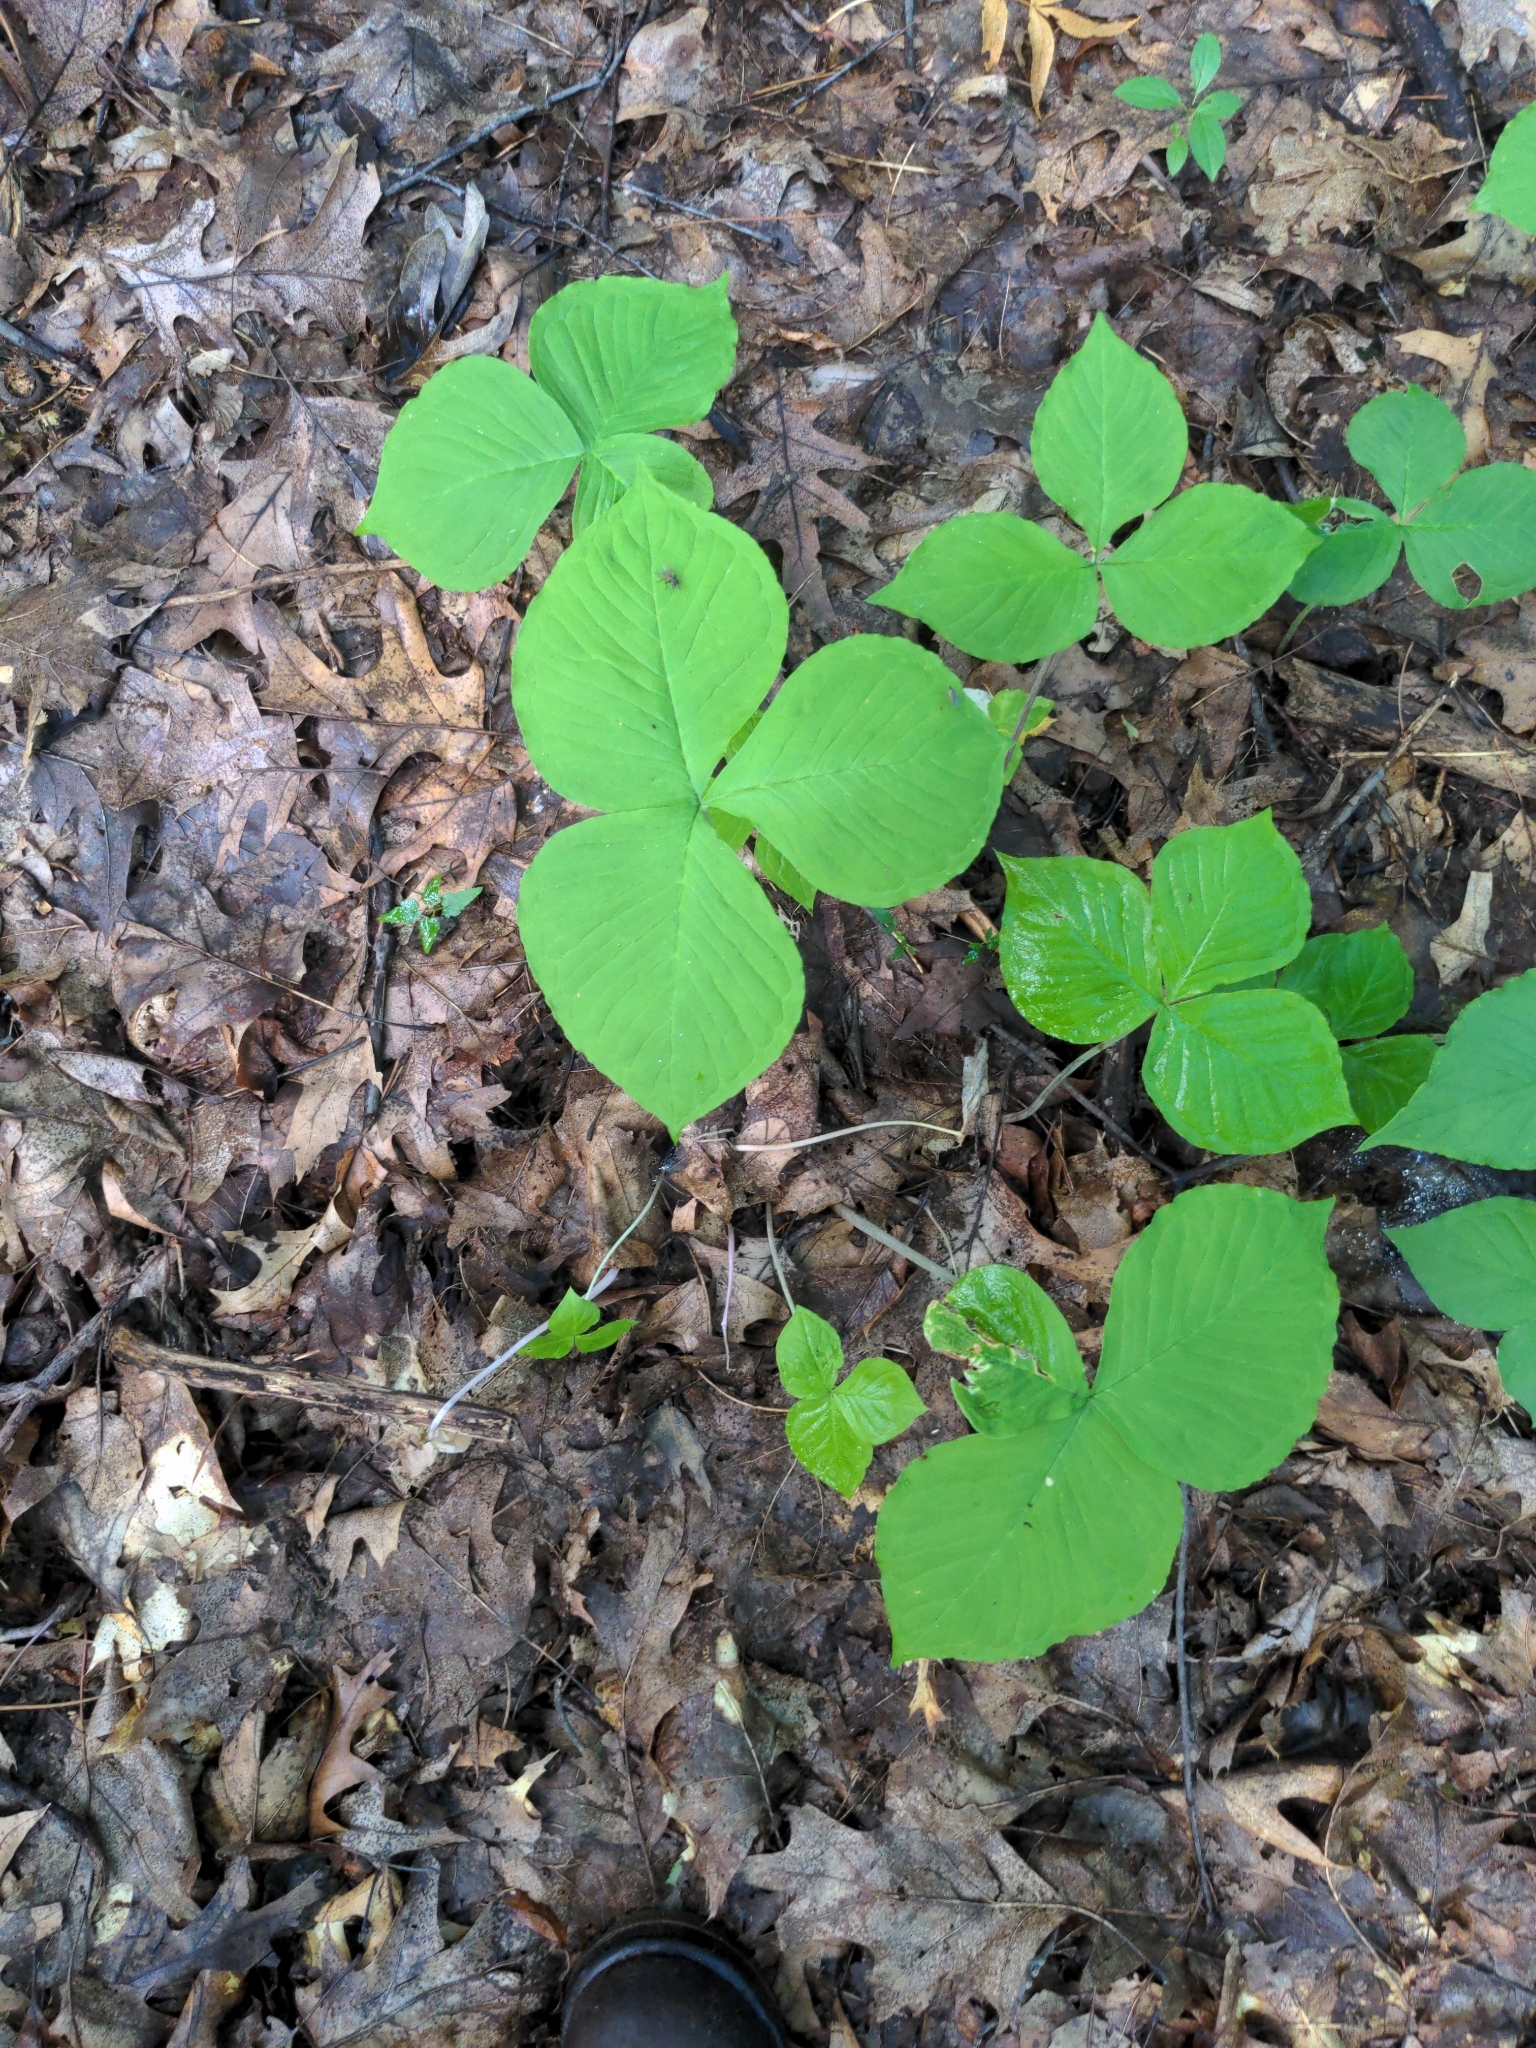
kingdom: Plantae
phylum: Tracheophyta
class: Liliopsida
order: Alismatales
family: Araceae
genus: Arisaema
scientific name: Arisaema triphyllum
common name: Jack-in-the-pulpit
